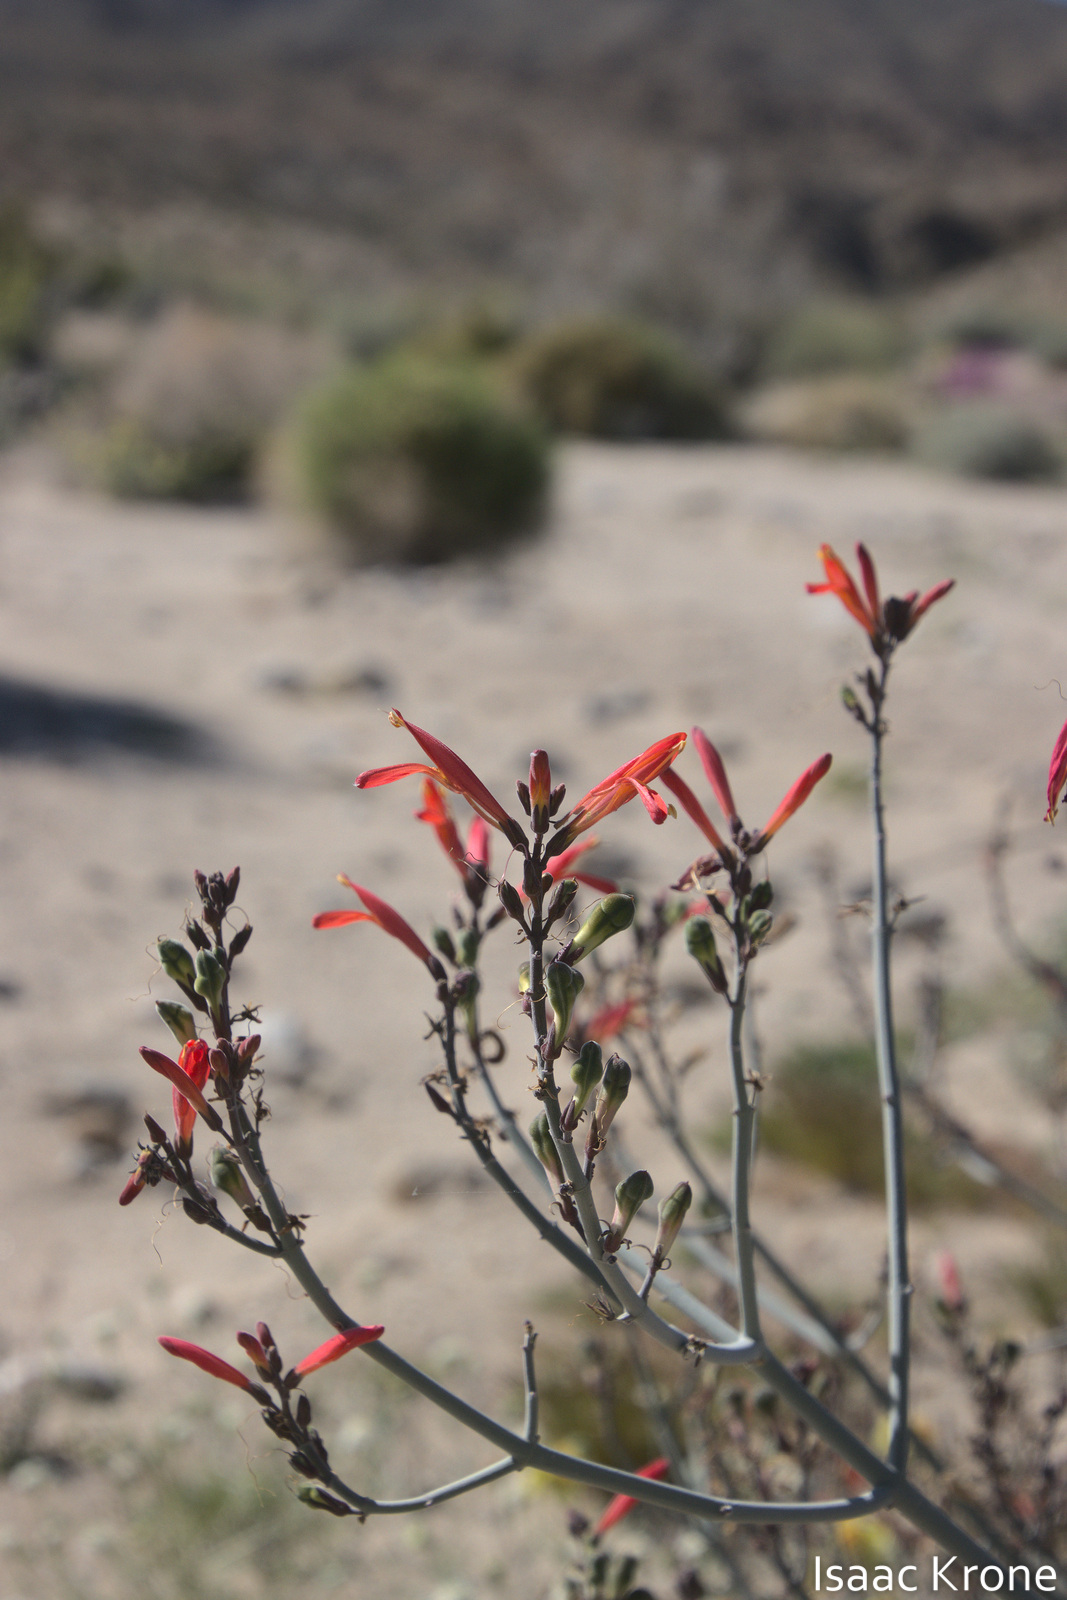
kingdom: Plantae
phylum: Tracheophyta
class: Magnoliopsida
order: Lamiales
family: Acanthaceae
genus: Justicia
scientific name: Justicia californica
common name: Chuparosa-honeysuckle
